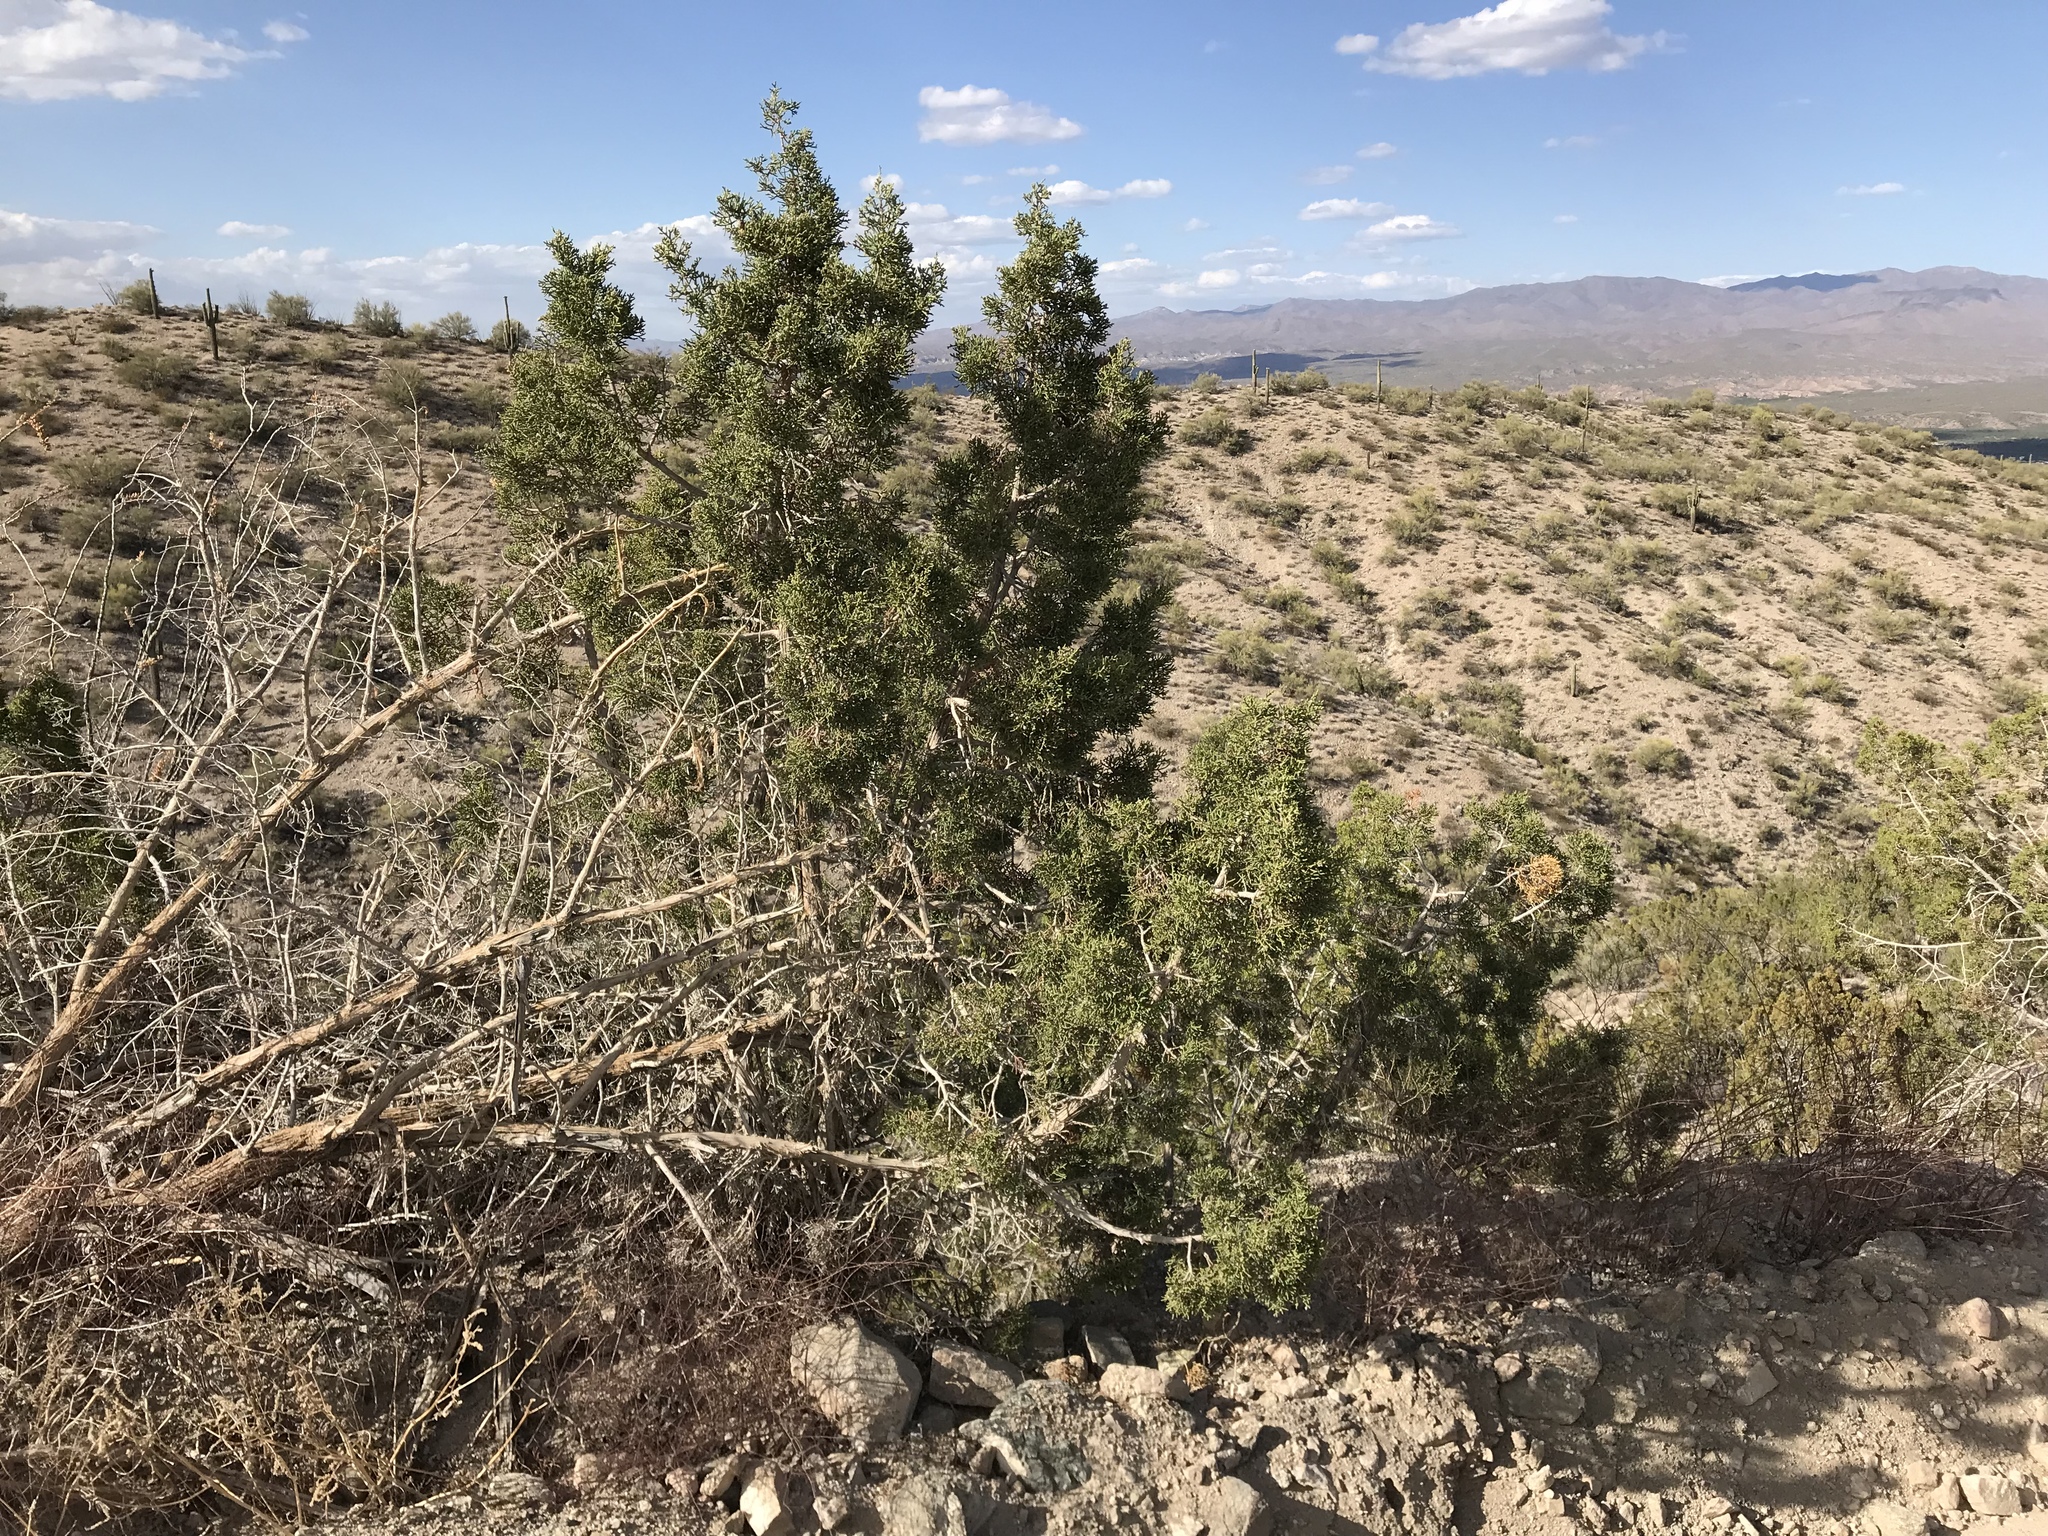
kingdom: Plantae
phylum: Tracheophyta
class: Pinopsida
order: Pinales
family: Cupressaceae
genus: Juniperus
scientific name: Juniperus californica
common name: California juniper
